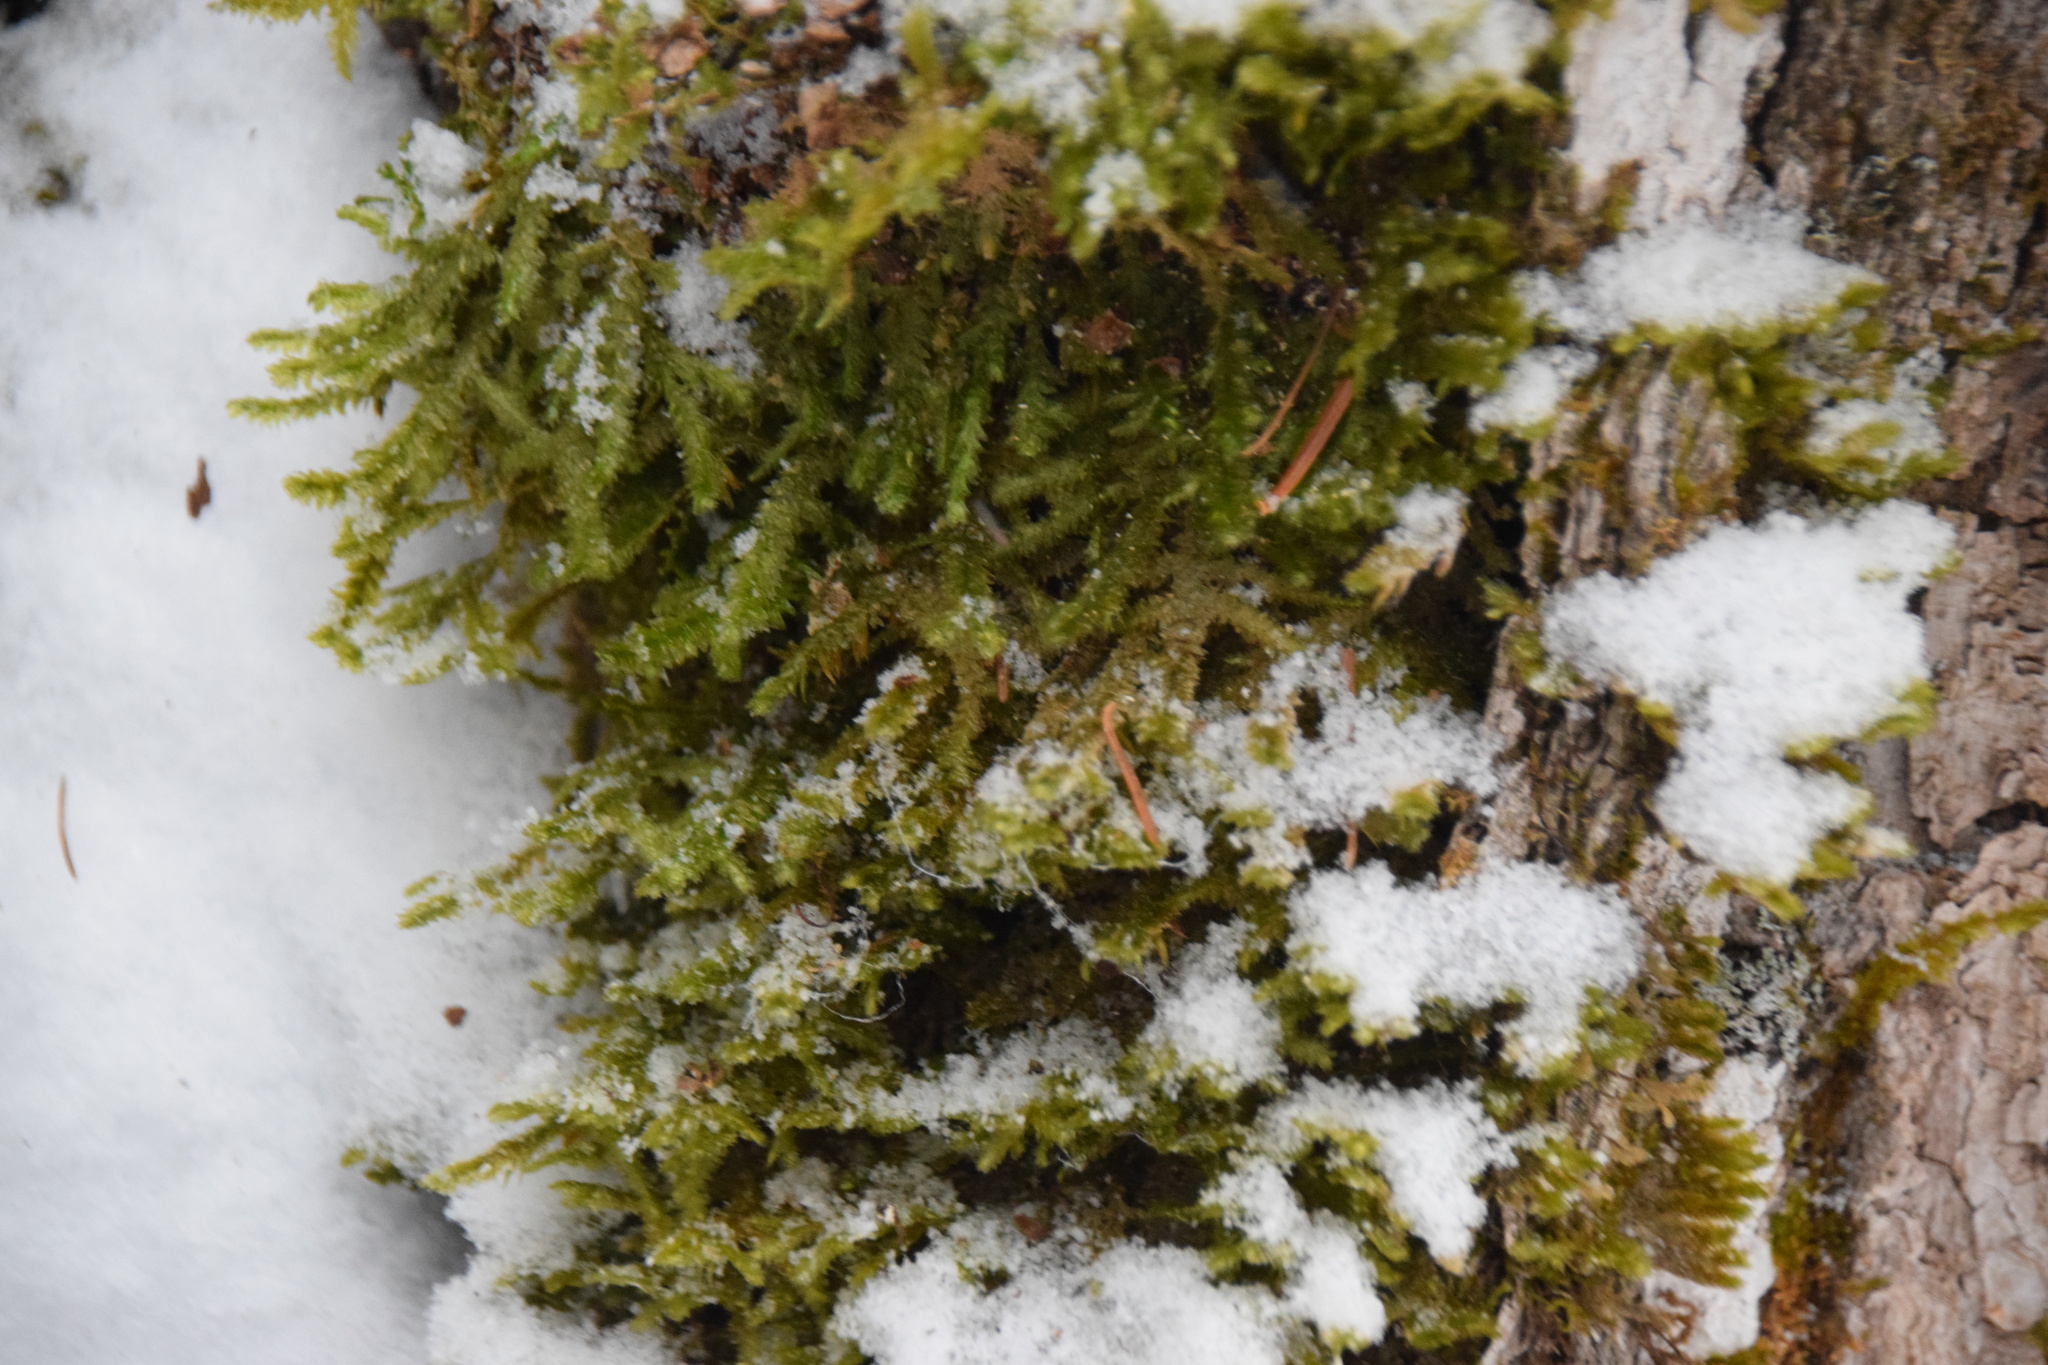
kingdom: Plantae
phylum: Bryophyta
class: Bryopsida
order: Hypnales
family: Neckeraceae
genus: Neckera
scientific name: Neckera pennata
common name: Feathery neckera
